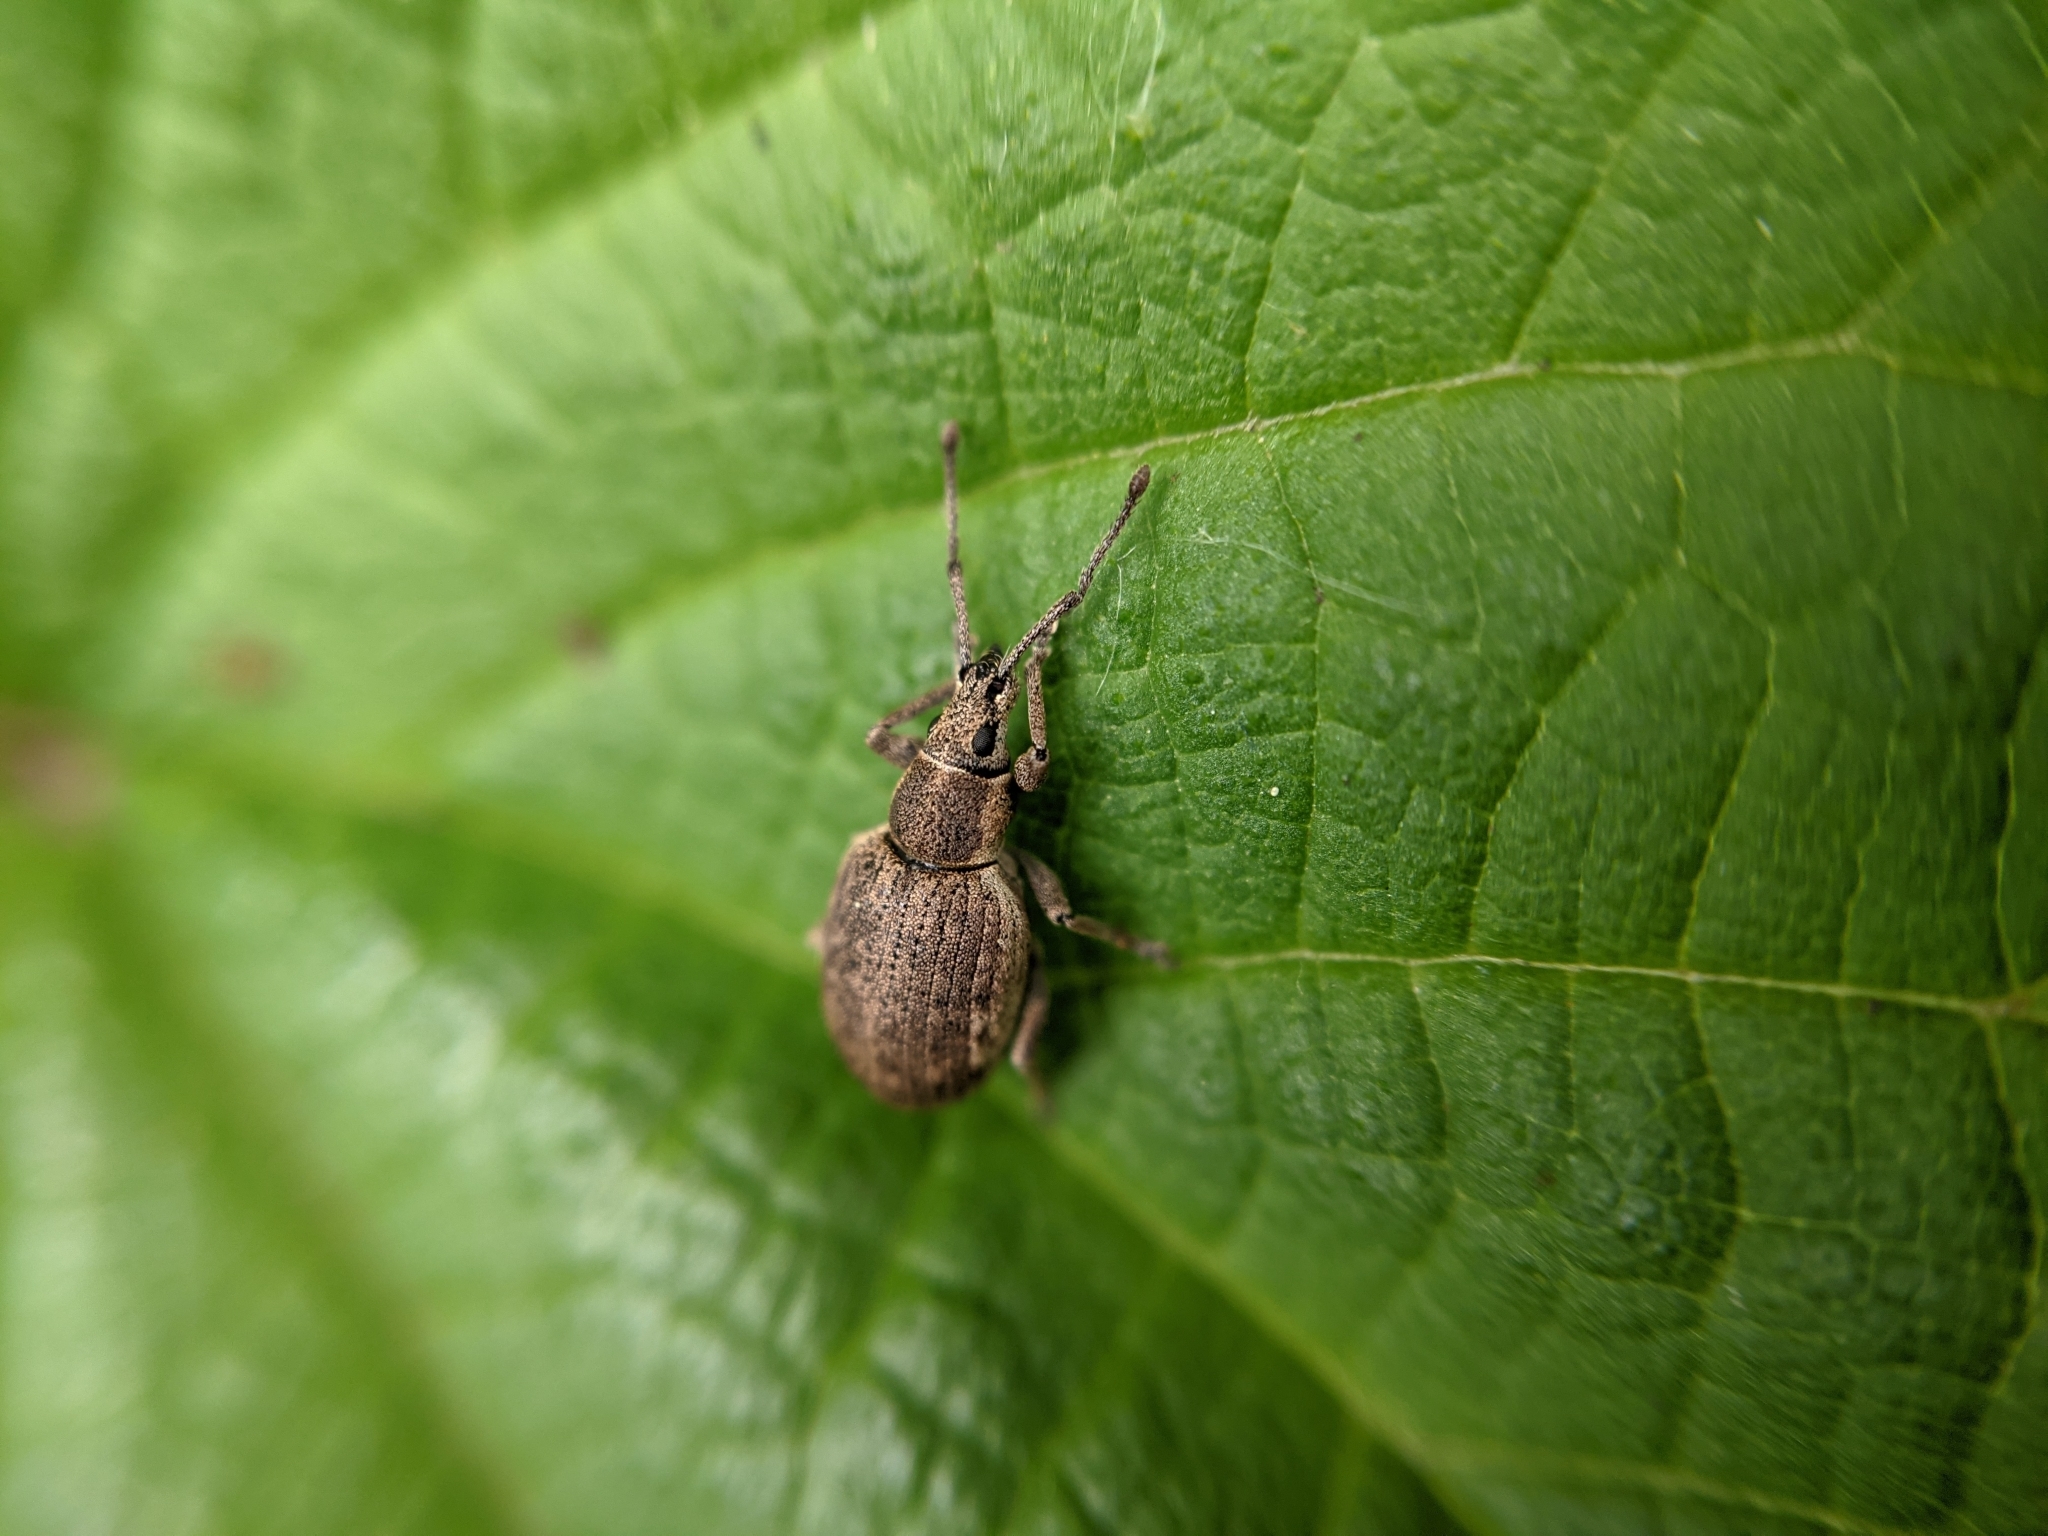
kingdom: Animalia
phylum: Arthropoda
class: Insecta
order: Coleoptera
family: Curculionidae
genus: Peritelus
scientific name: Peritelus sphaeroides
